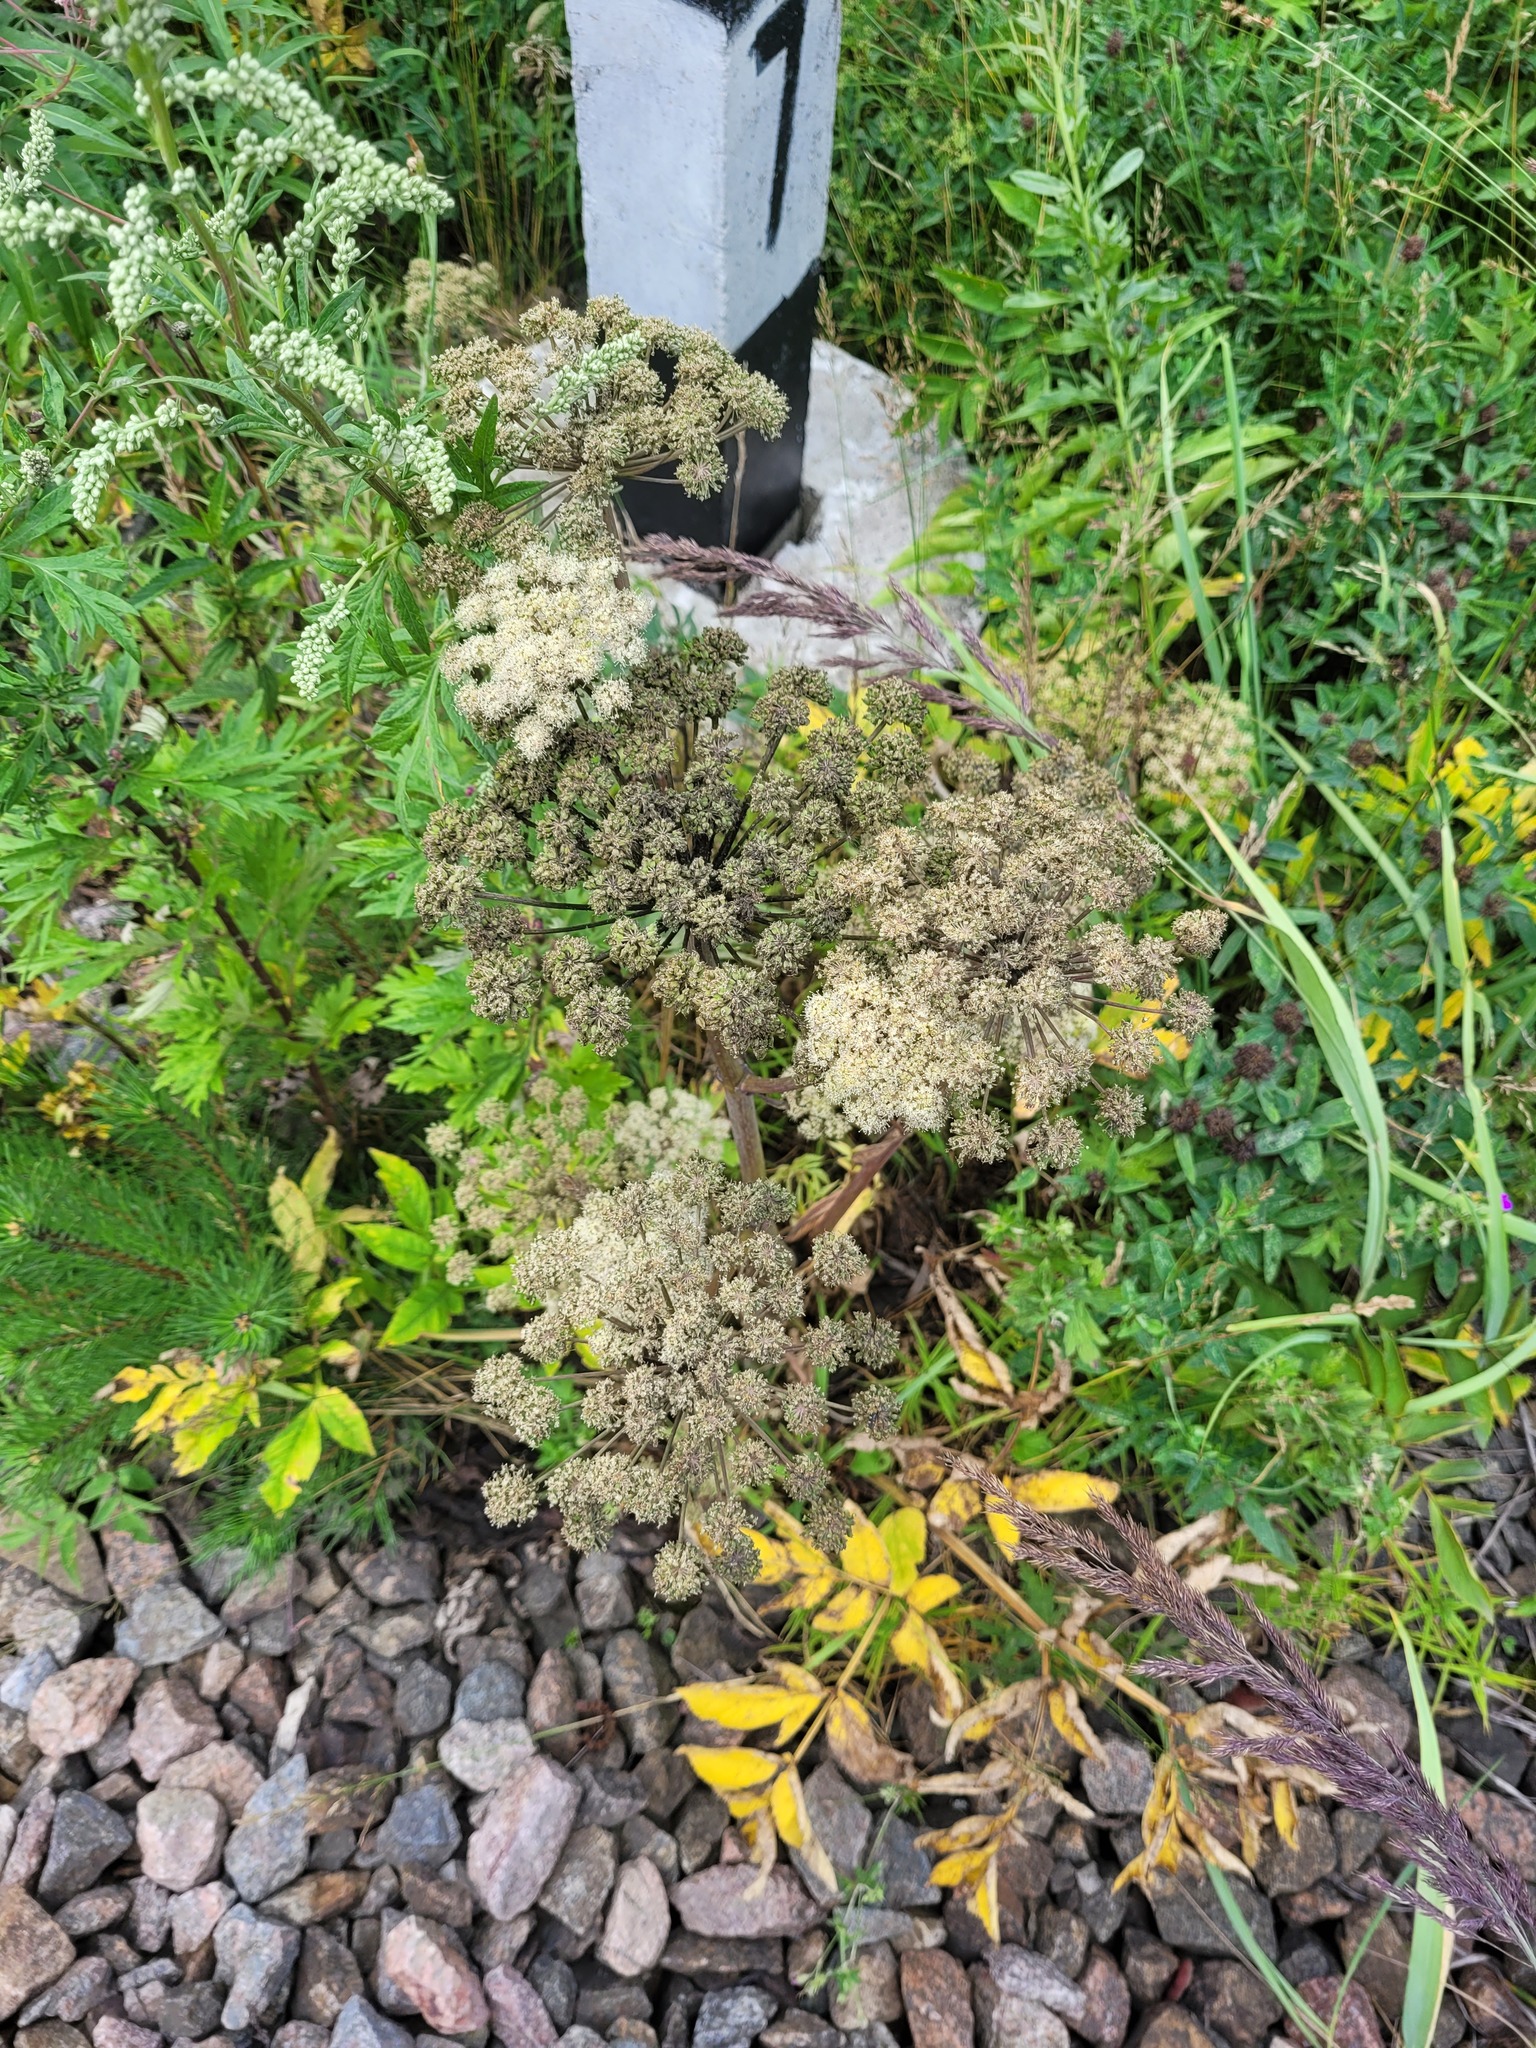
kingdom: Plantae
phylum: Tracheophyta
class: Magnoliopsida
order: Apiales
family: Apiaceae
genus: Angelica
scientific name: Angelica sylvestris
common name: Wild angelica
